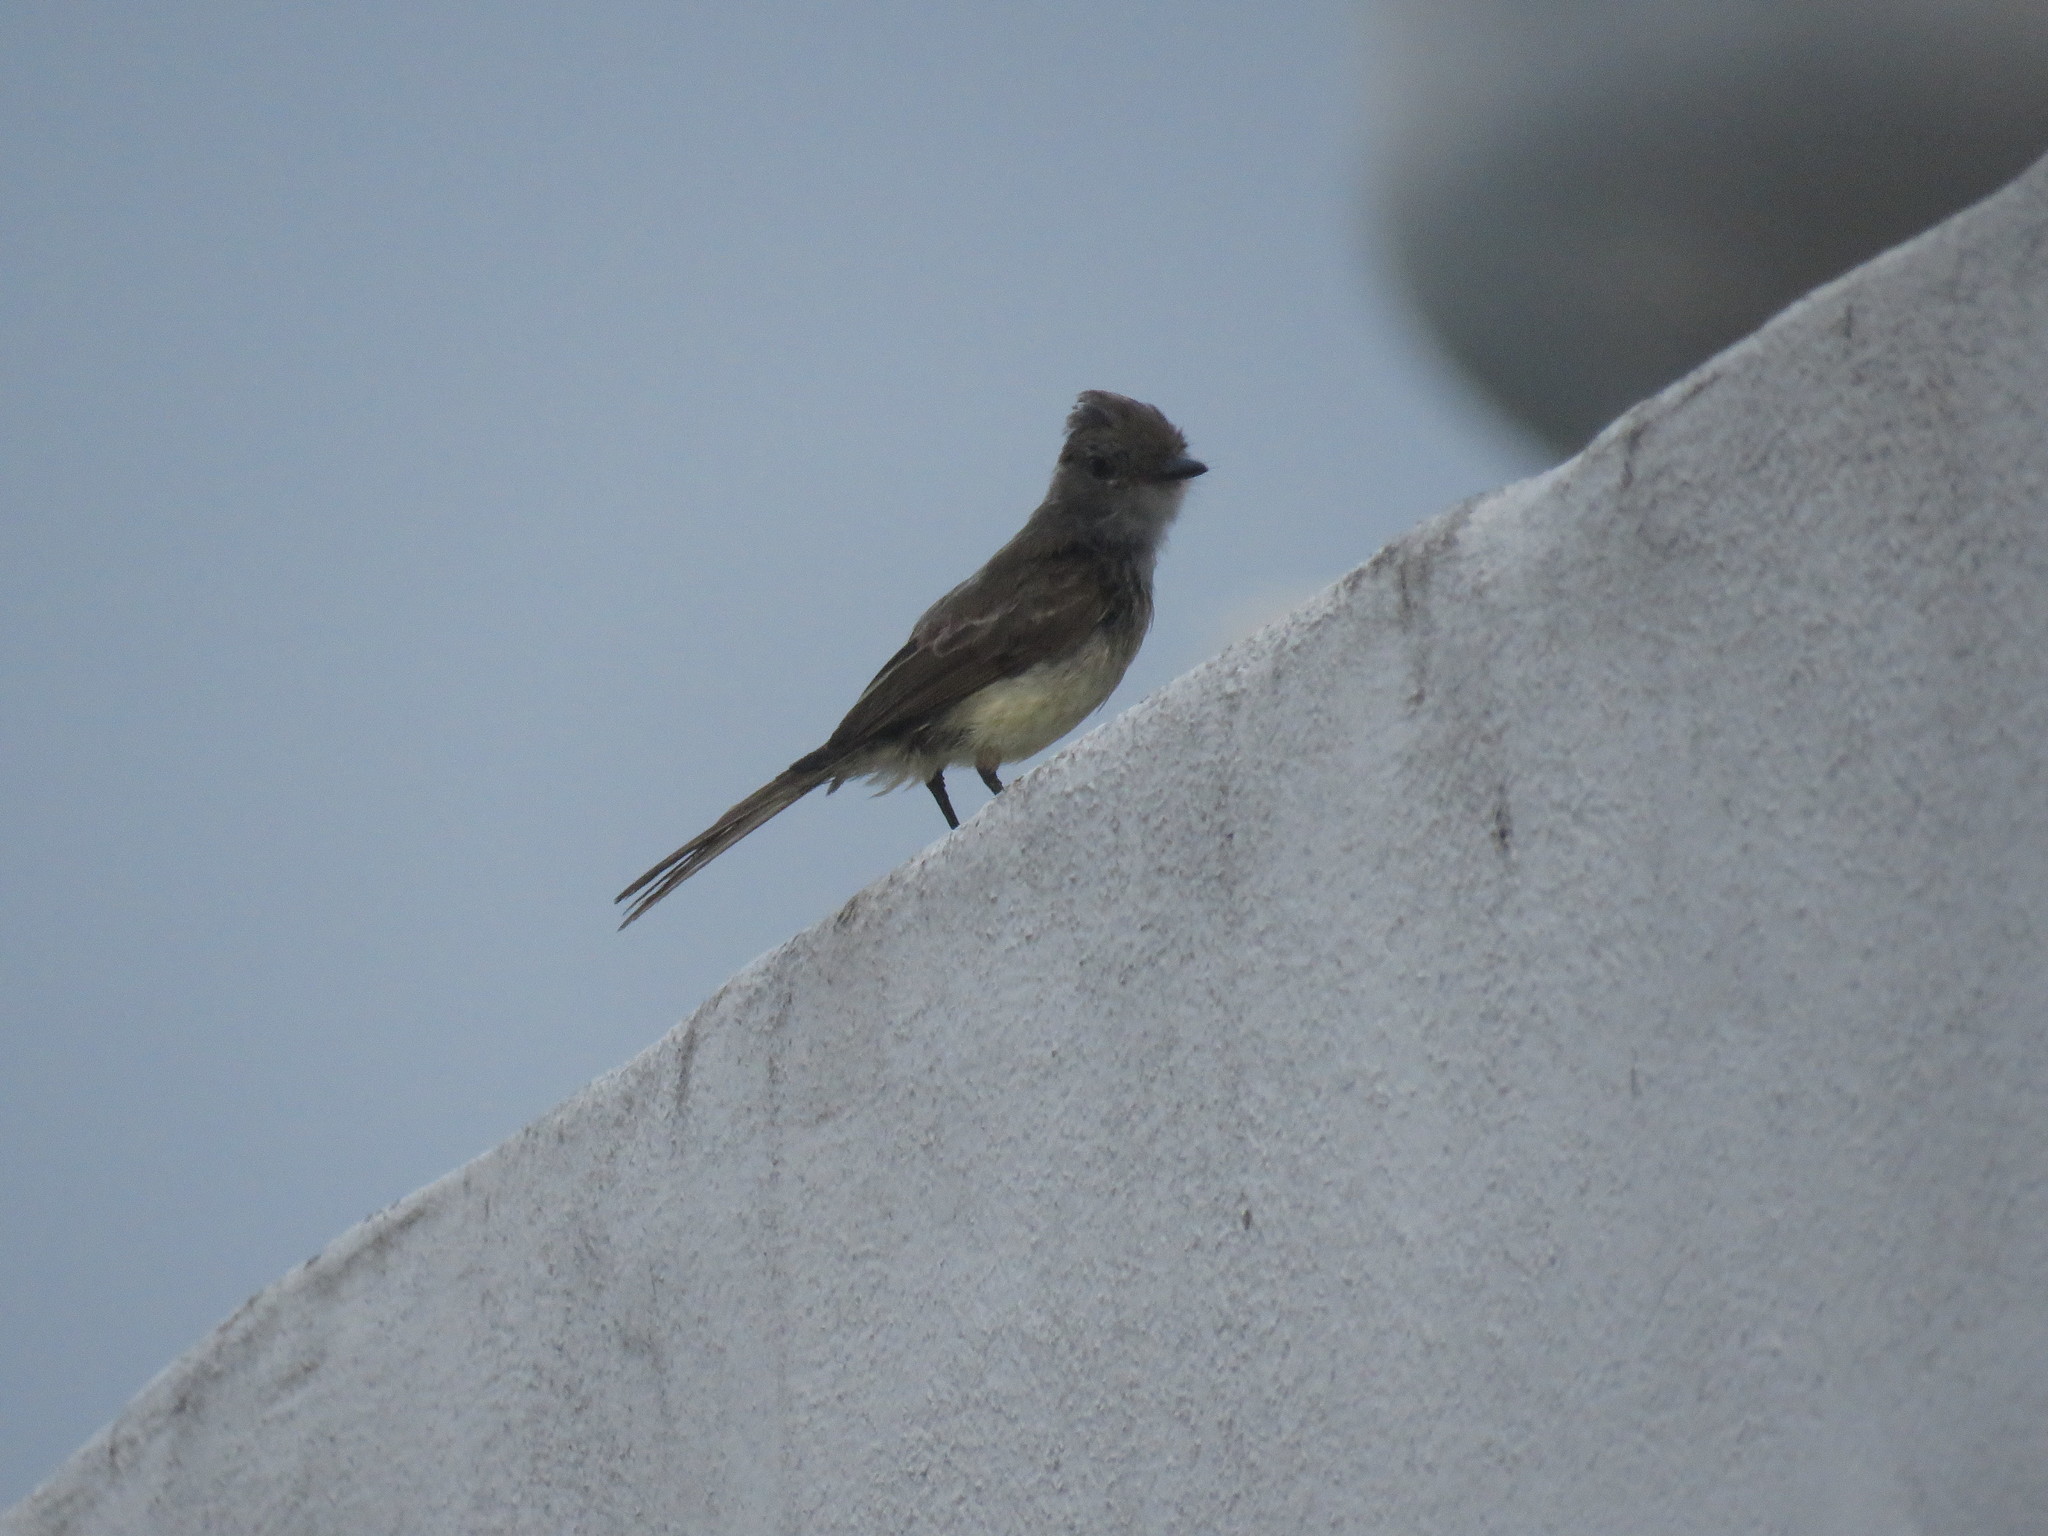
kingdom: Animalia
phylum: Chordata
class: Aves
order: Passeriformes
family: Tyrannidae
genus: Myiarchus
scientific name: Myiarchus magnirostris
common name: Galapagos flycatcher
